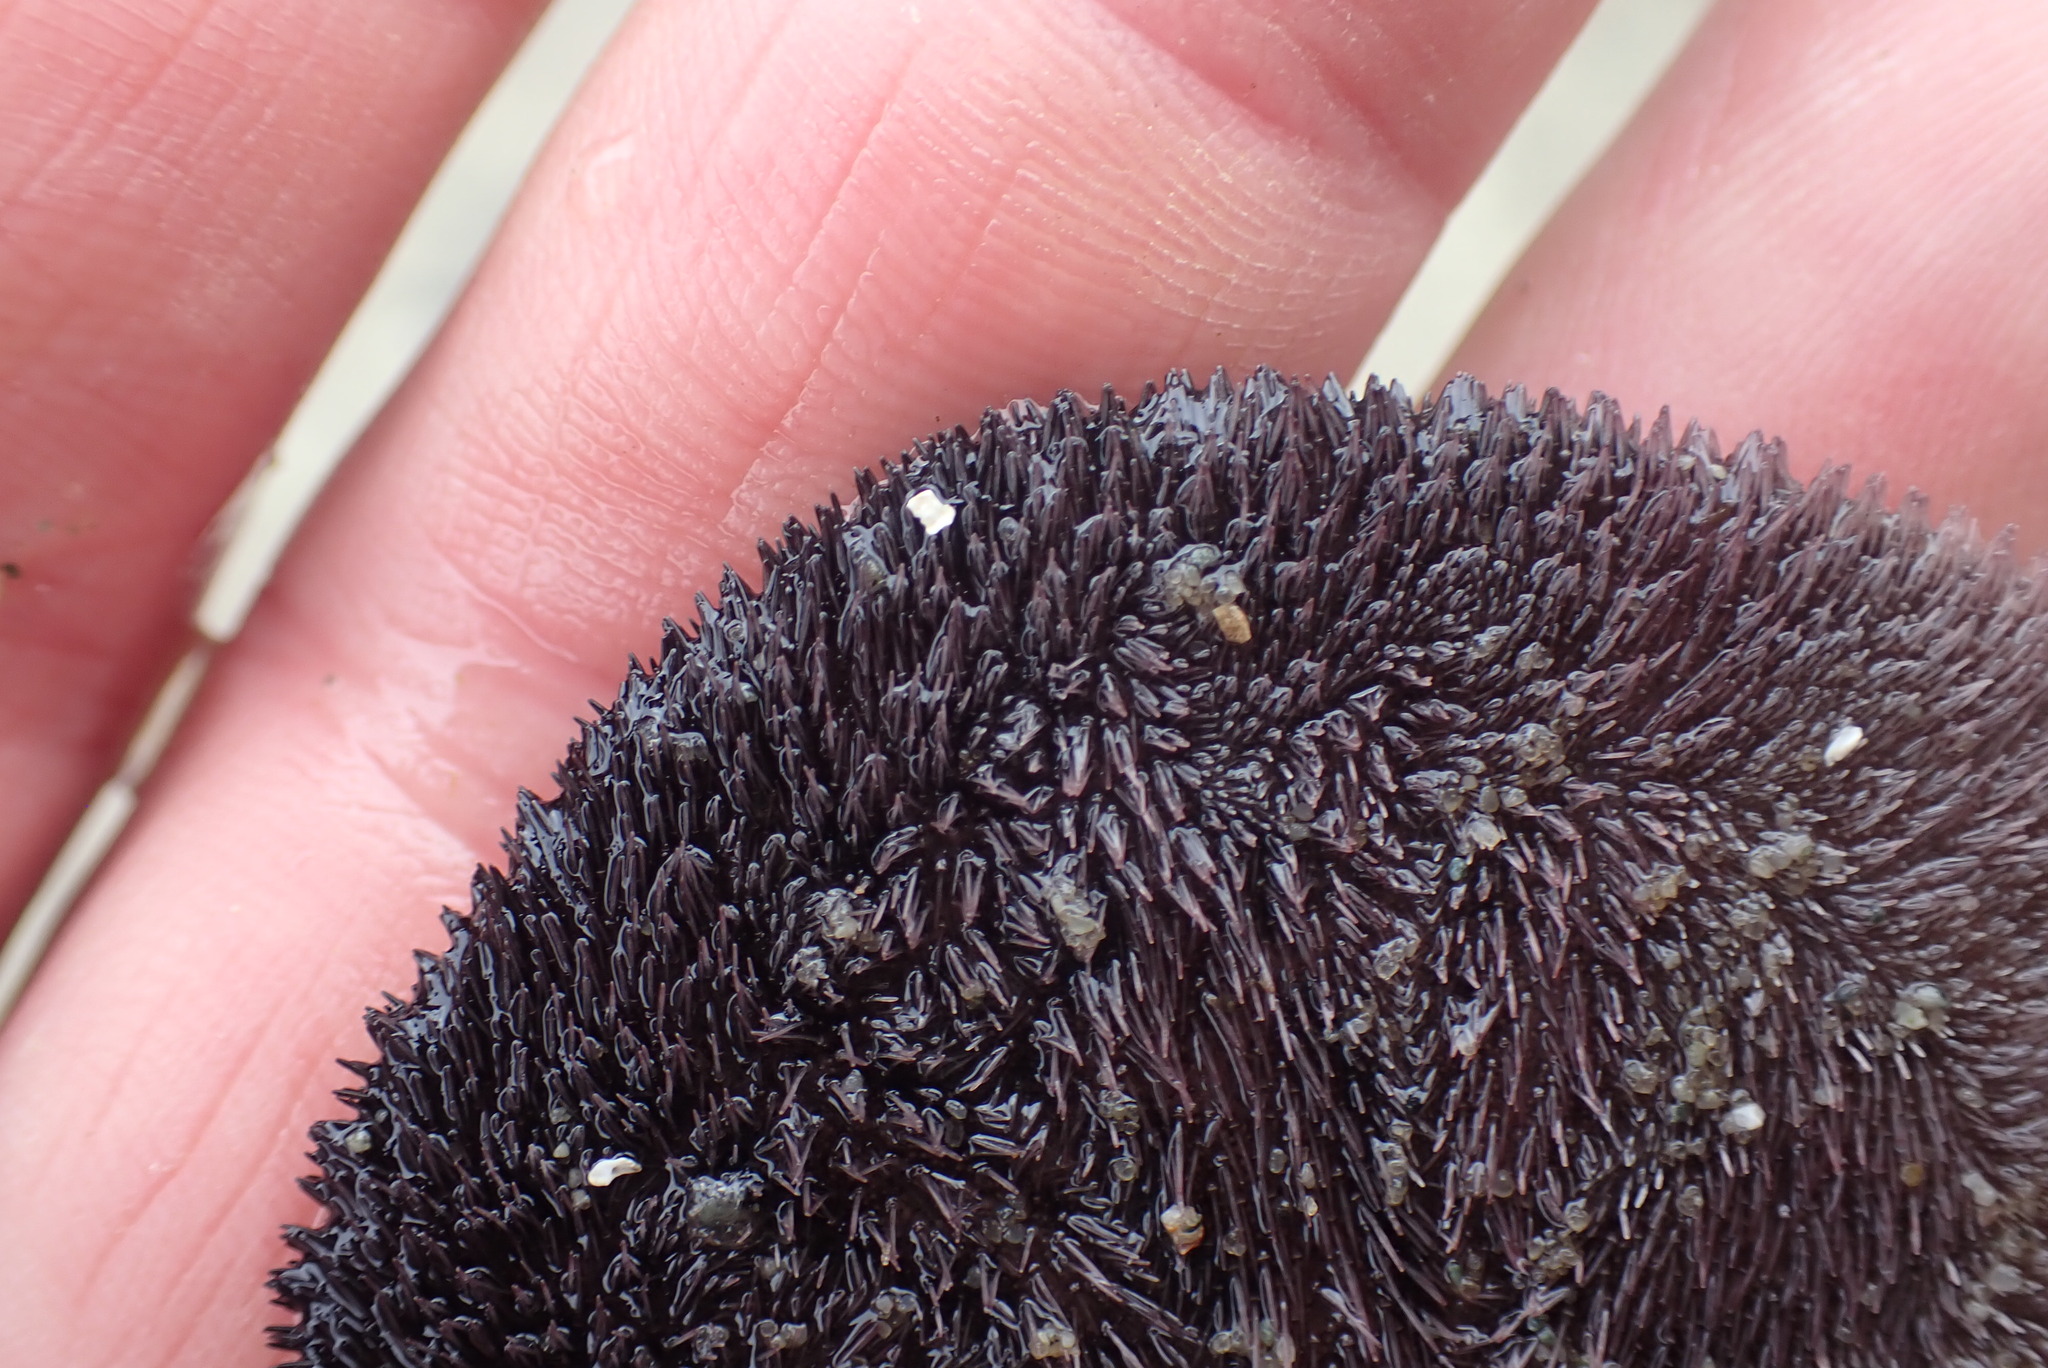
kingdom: Animalia
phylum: Echinodermata
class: Echinoidea
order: Echinolampadacea
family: Dendrasteridae
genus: Dendraster
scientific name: Dendraster excentricus
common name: Eccentric sand dollar sea urchin
